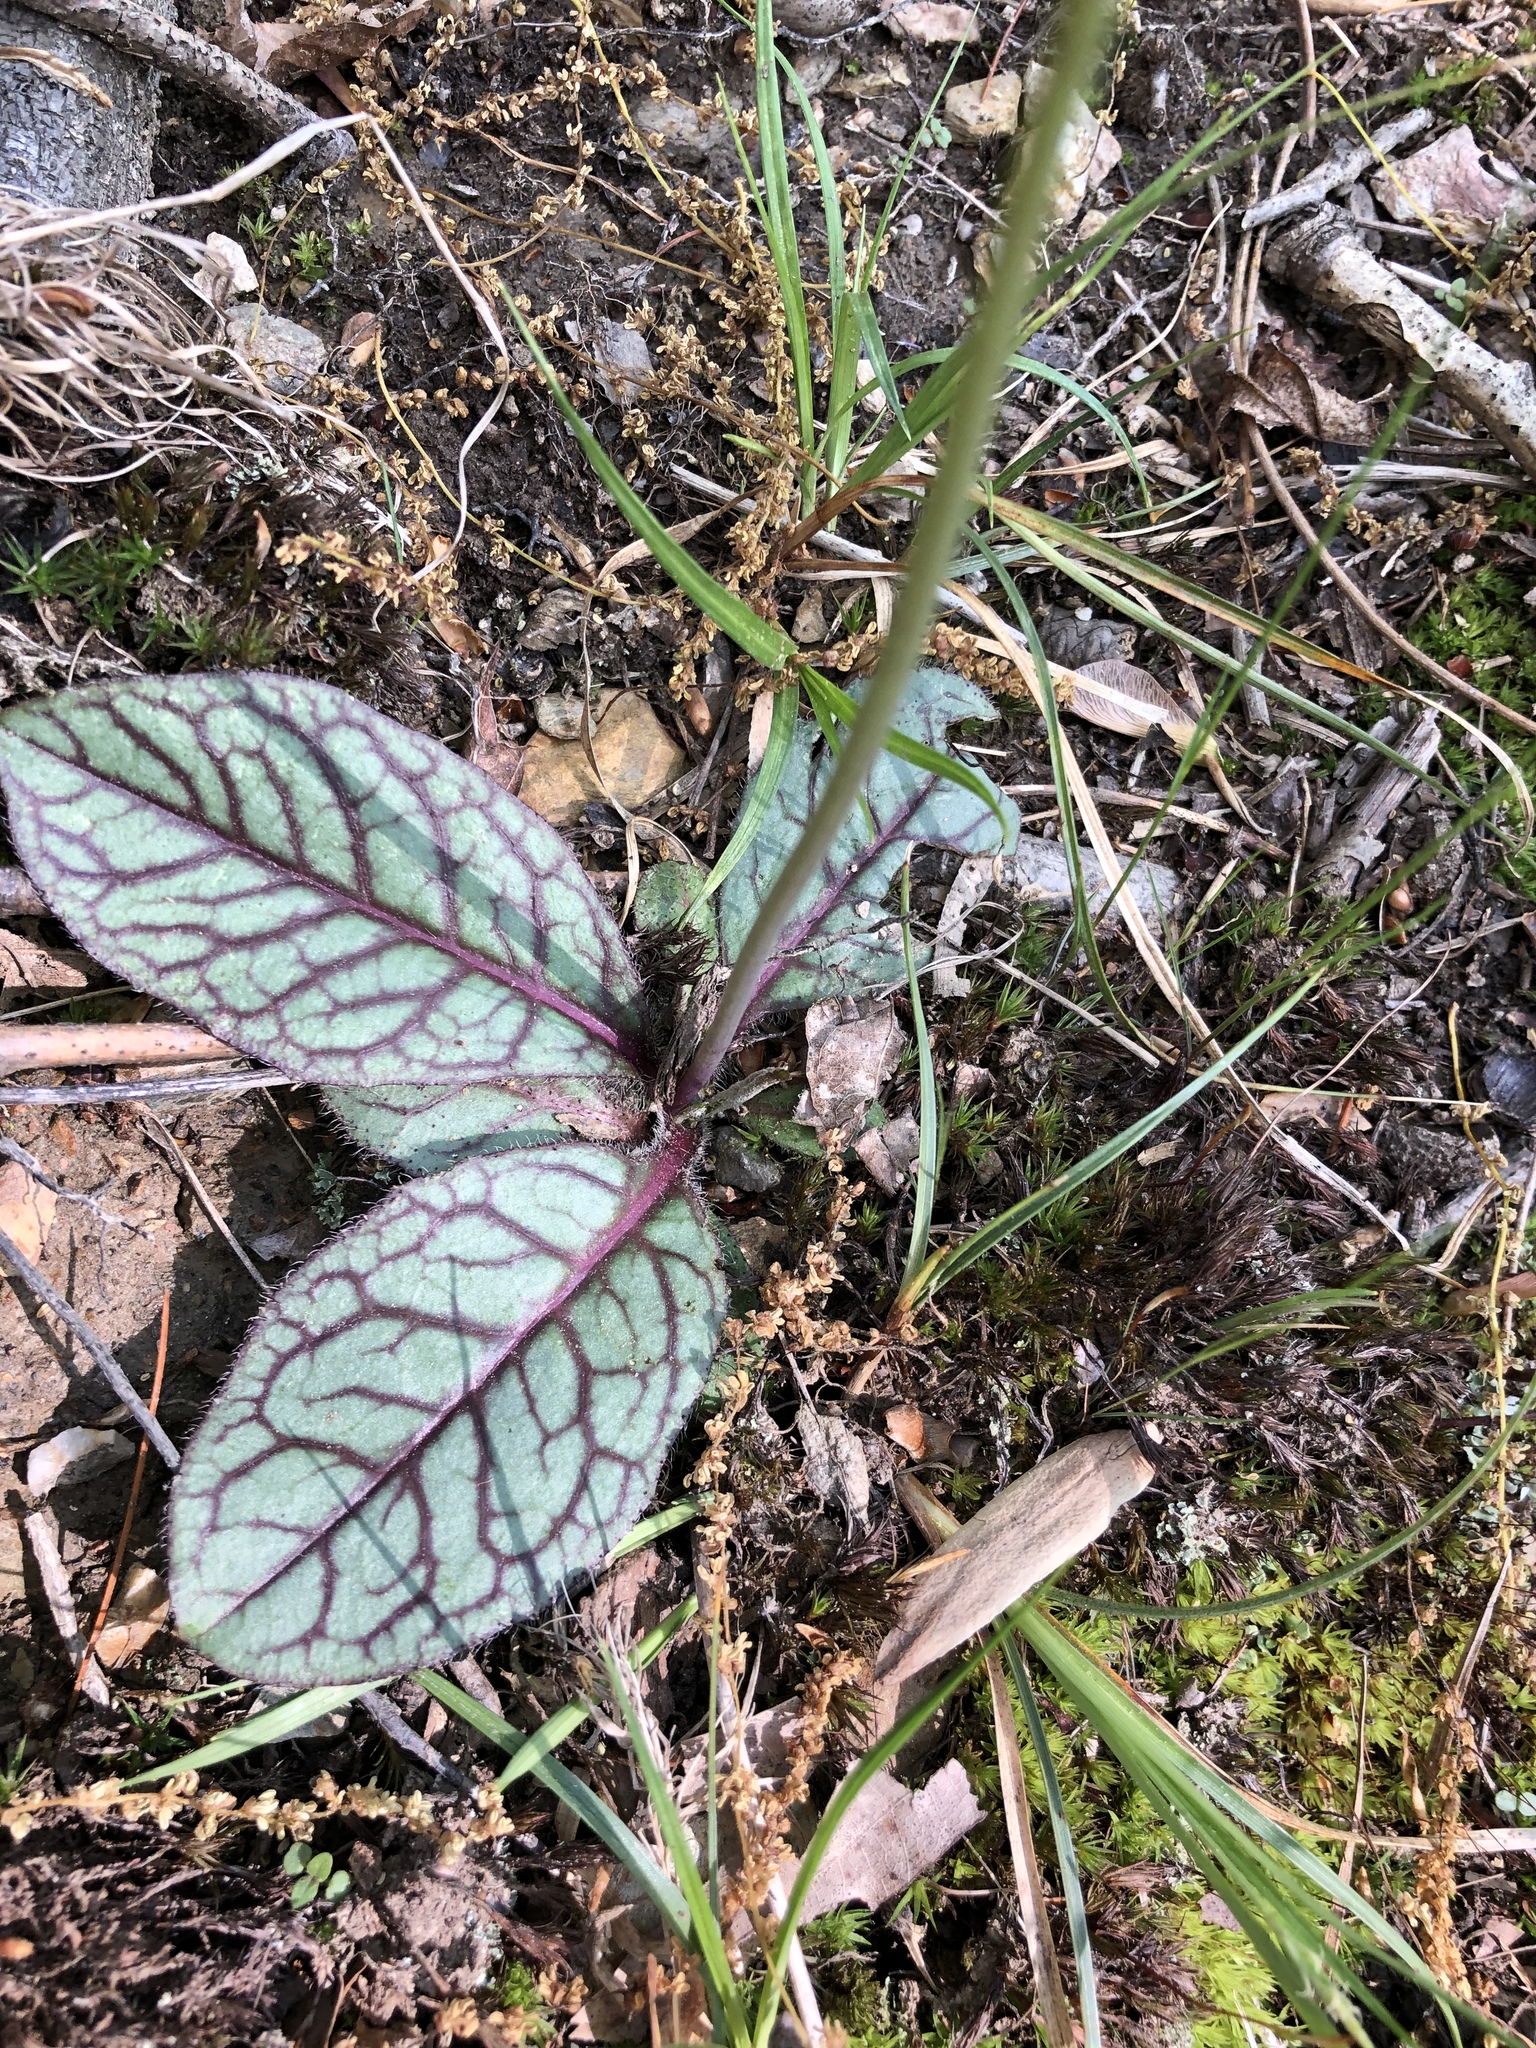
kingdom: Plantae
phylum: Tracheophyta
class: Magnoliopsida
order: Asterales
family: Asteraceae
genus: Hieracium
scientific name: Hieracium venosum
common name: Rattlesnake hawkweed
